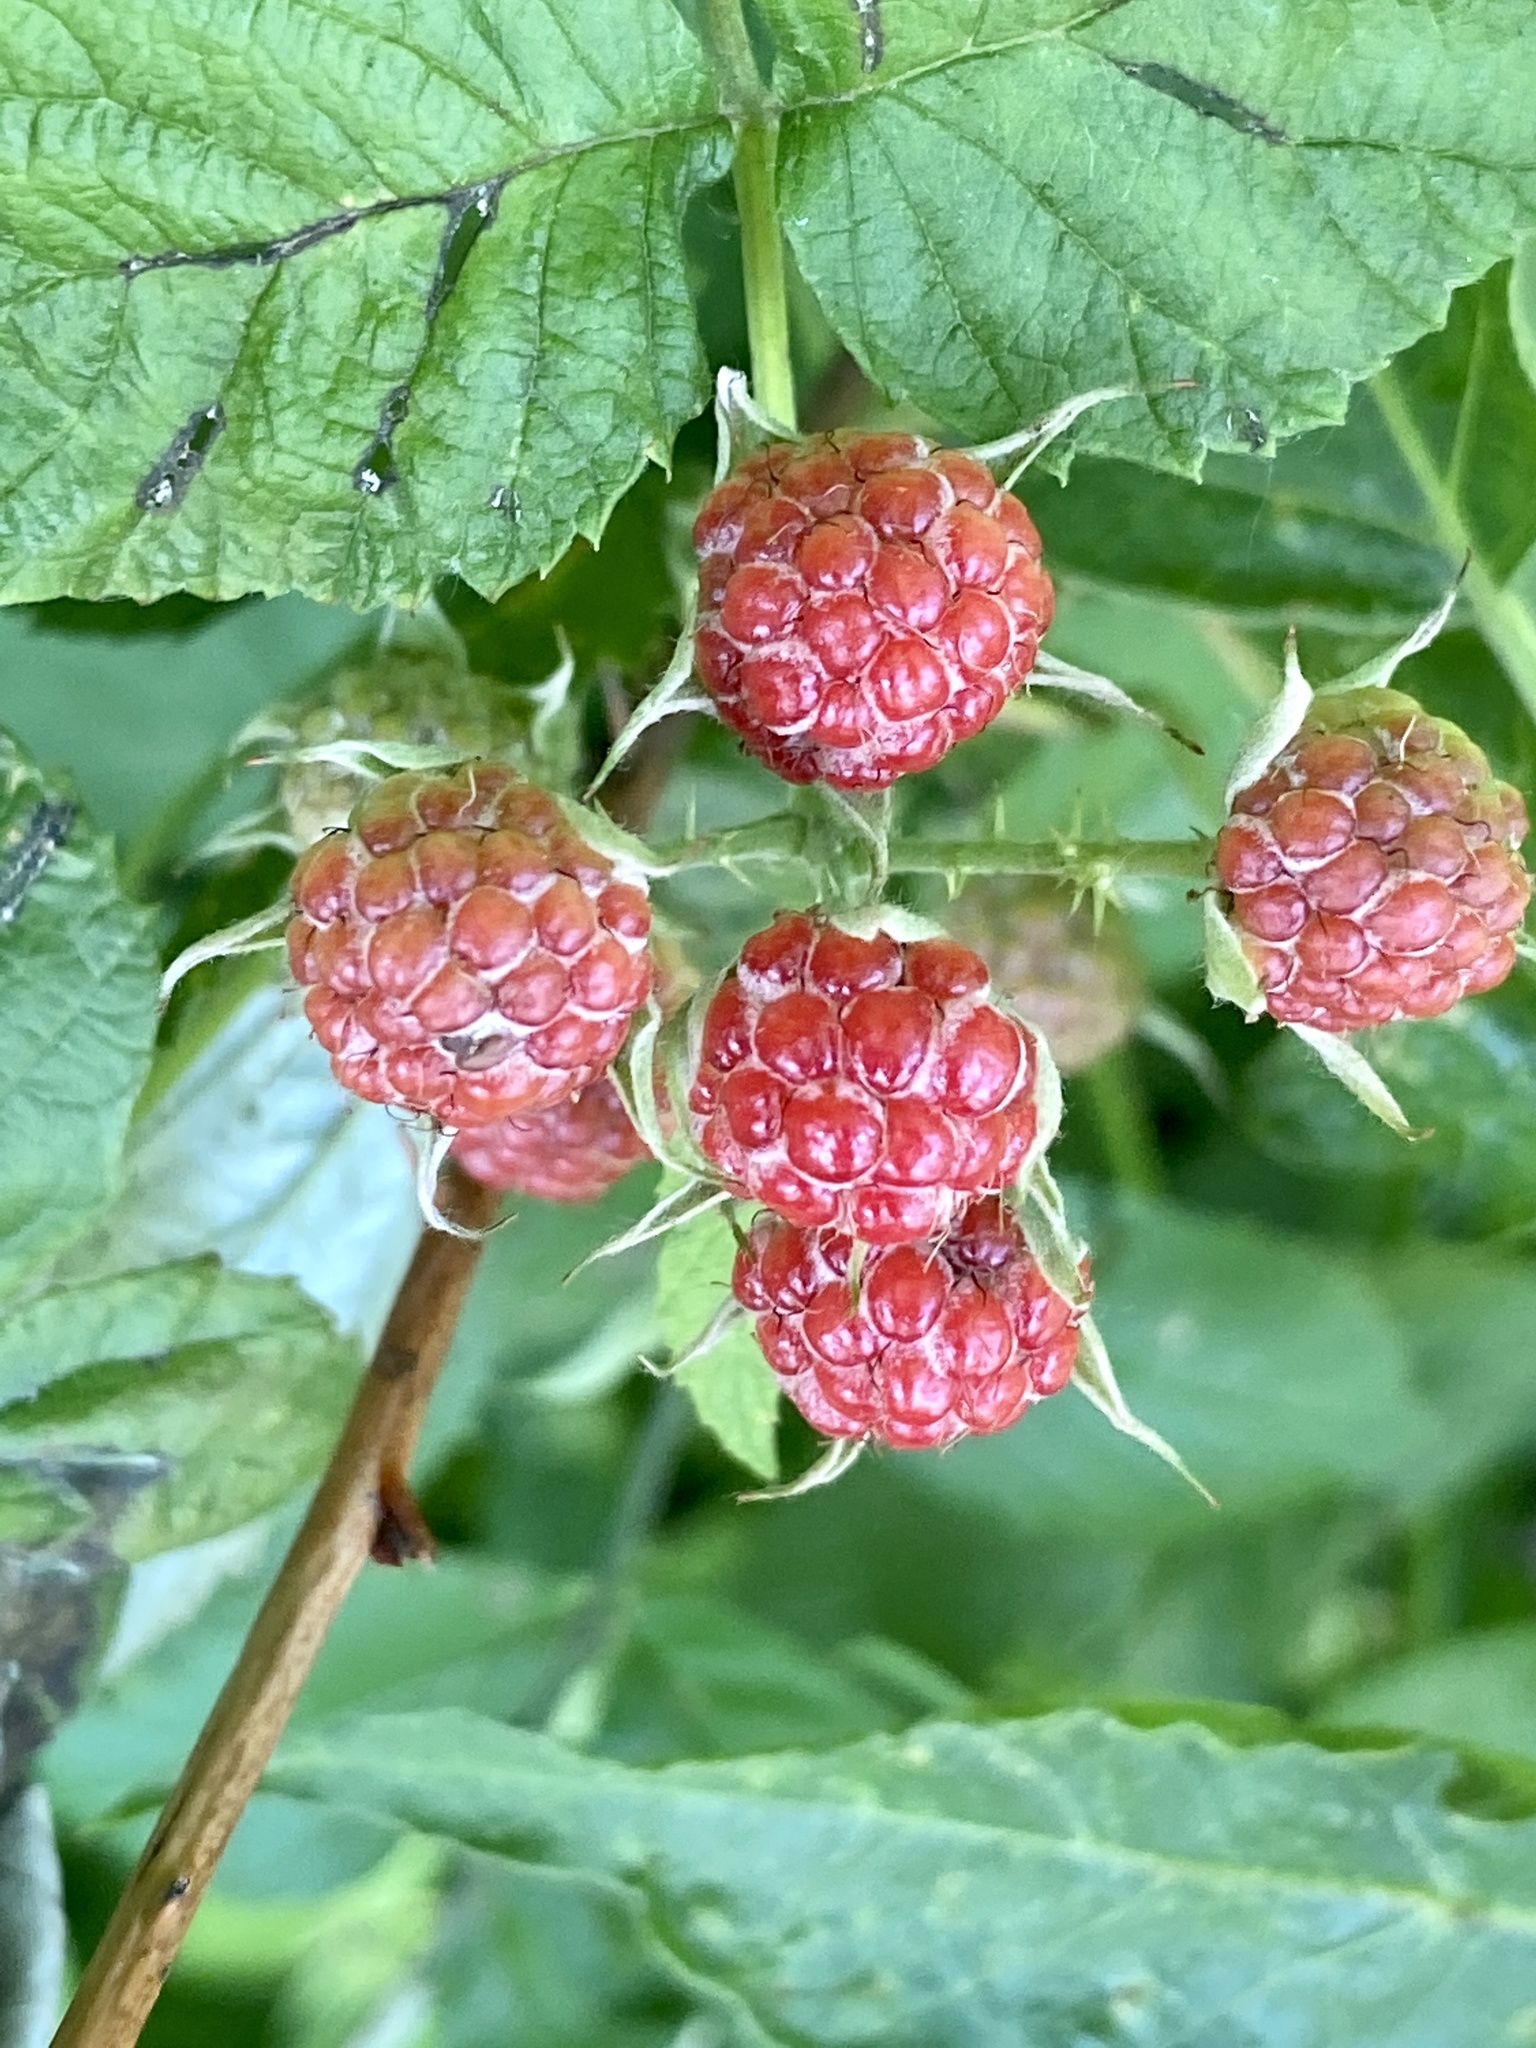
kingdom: Plantae
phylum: Tracheophyta
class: Magnoliopsida
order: Rosales
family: Rosaceae
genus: Rubus
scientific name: Rubus occidentalis
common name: Black raspberry
